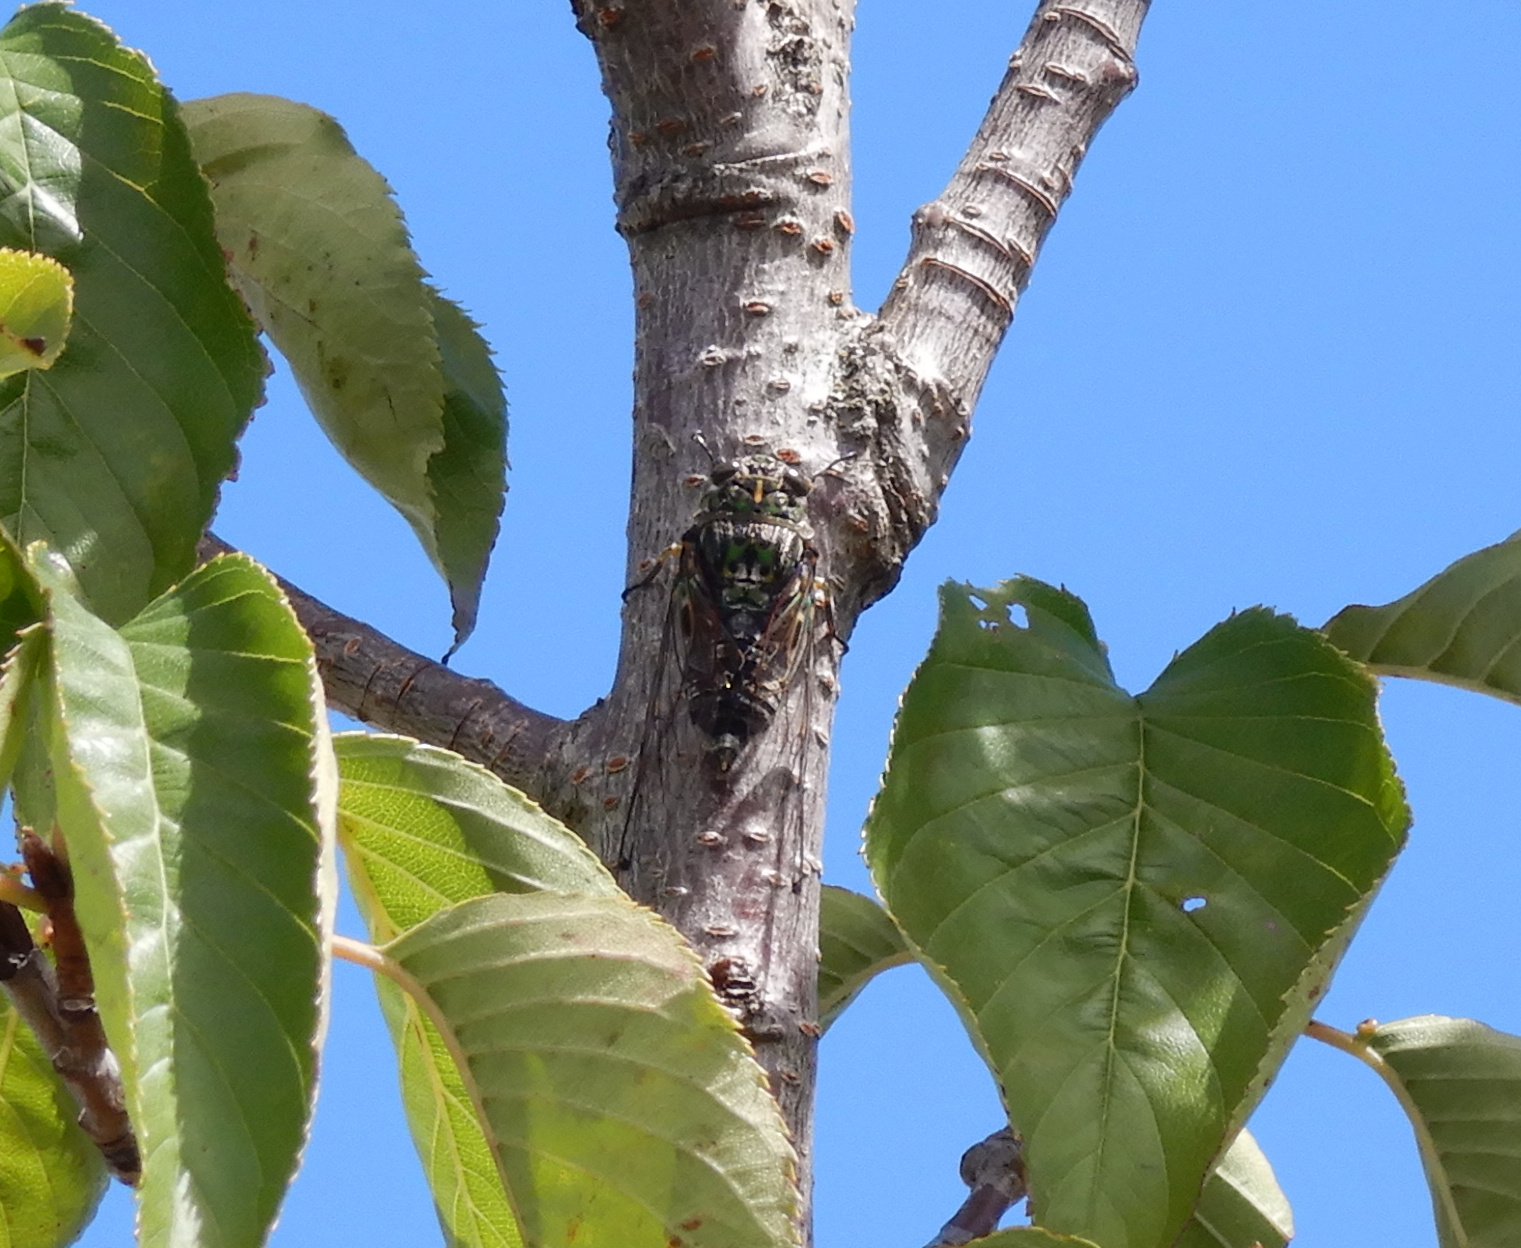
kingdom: Animalia
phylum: Arthropoda
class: Insecta
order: Hemiptera
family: Cicadidae
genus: Amphipsalta
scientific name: Amphipsalta zelandica
